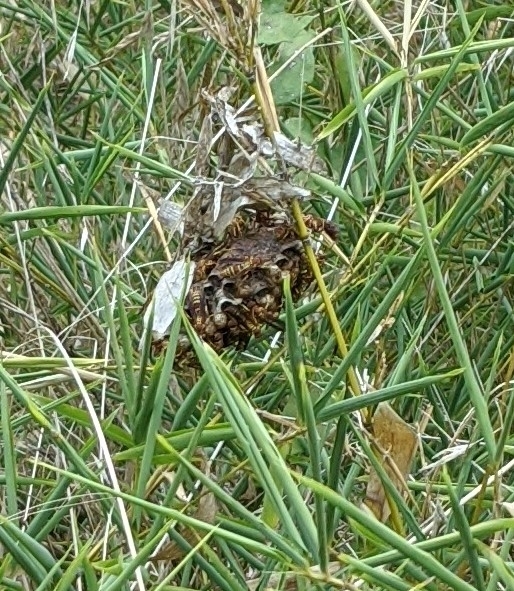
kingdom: Animalia
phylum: Arthropoda
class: Insecta
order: Hymenoptera
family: Eumenidae
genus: Polistes
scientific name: Polistes exclamans
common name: Paper wasp
